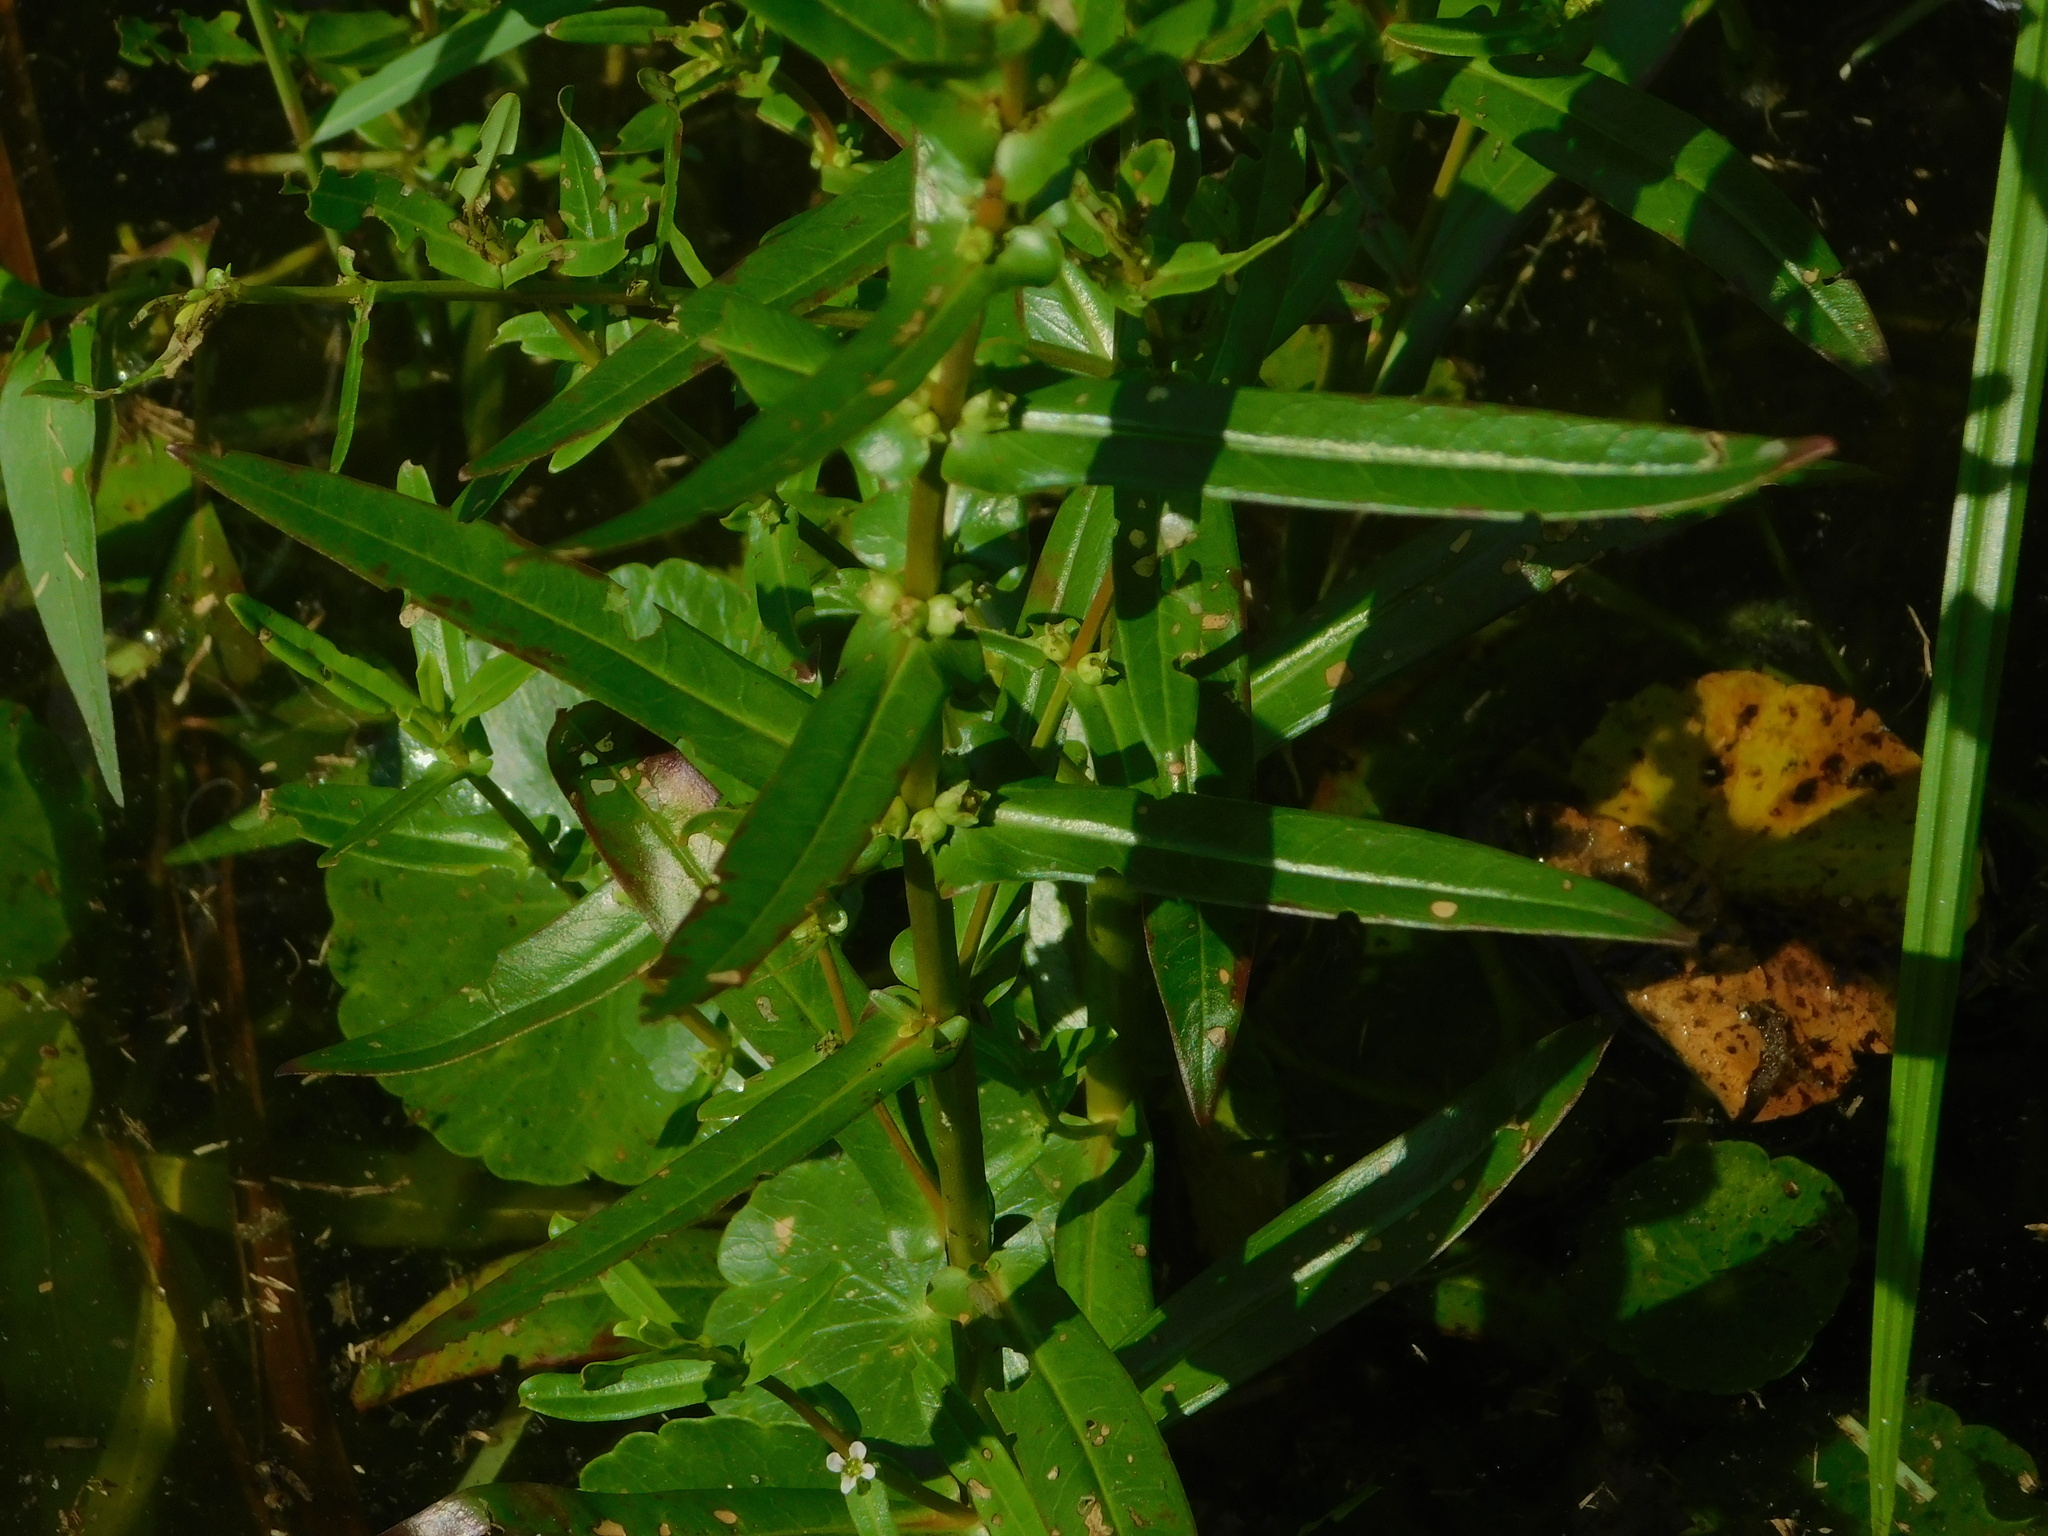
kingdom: Plantae
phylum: Tracheophyta
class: Magnoliopsida
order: Myrtales
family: Lythraceae
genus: Ammannia
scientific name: Ammannia latifolia
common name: Toothcup
